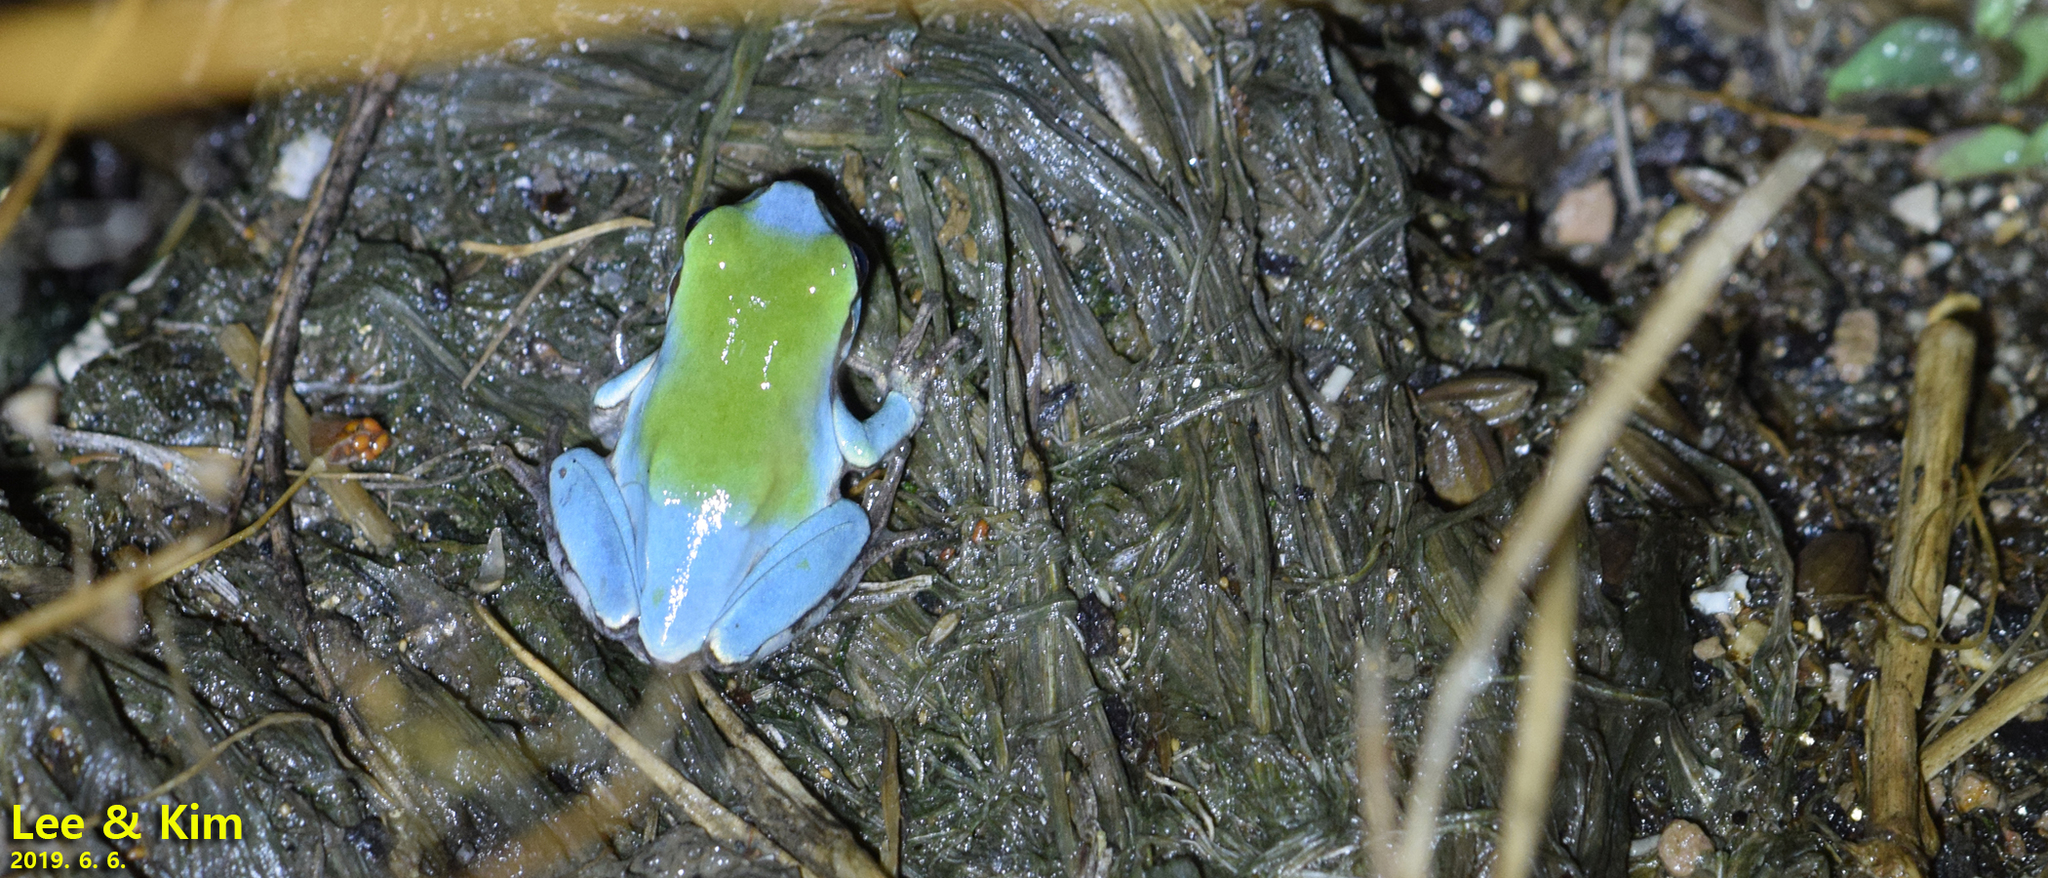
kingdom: Animalia
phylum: Chordata
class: Amphibia
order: Anura
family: Hylidae
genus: Dryophytes
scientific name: Dryophytes japonicus
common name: Japanese treefrog
